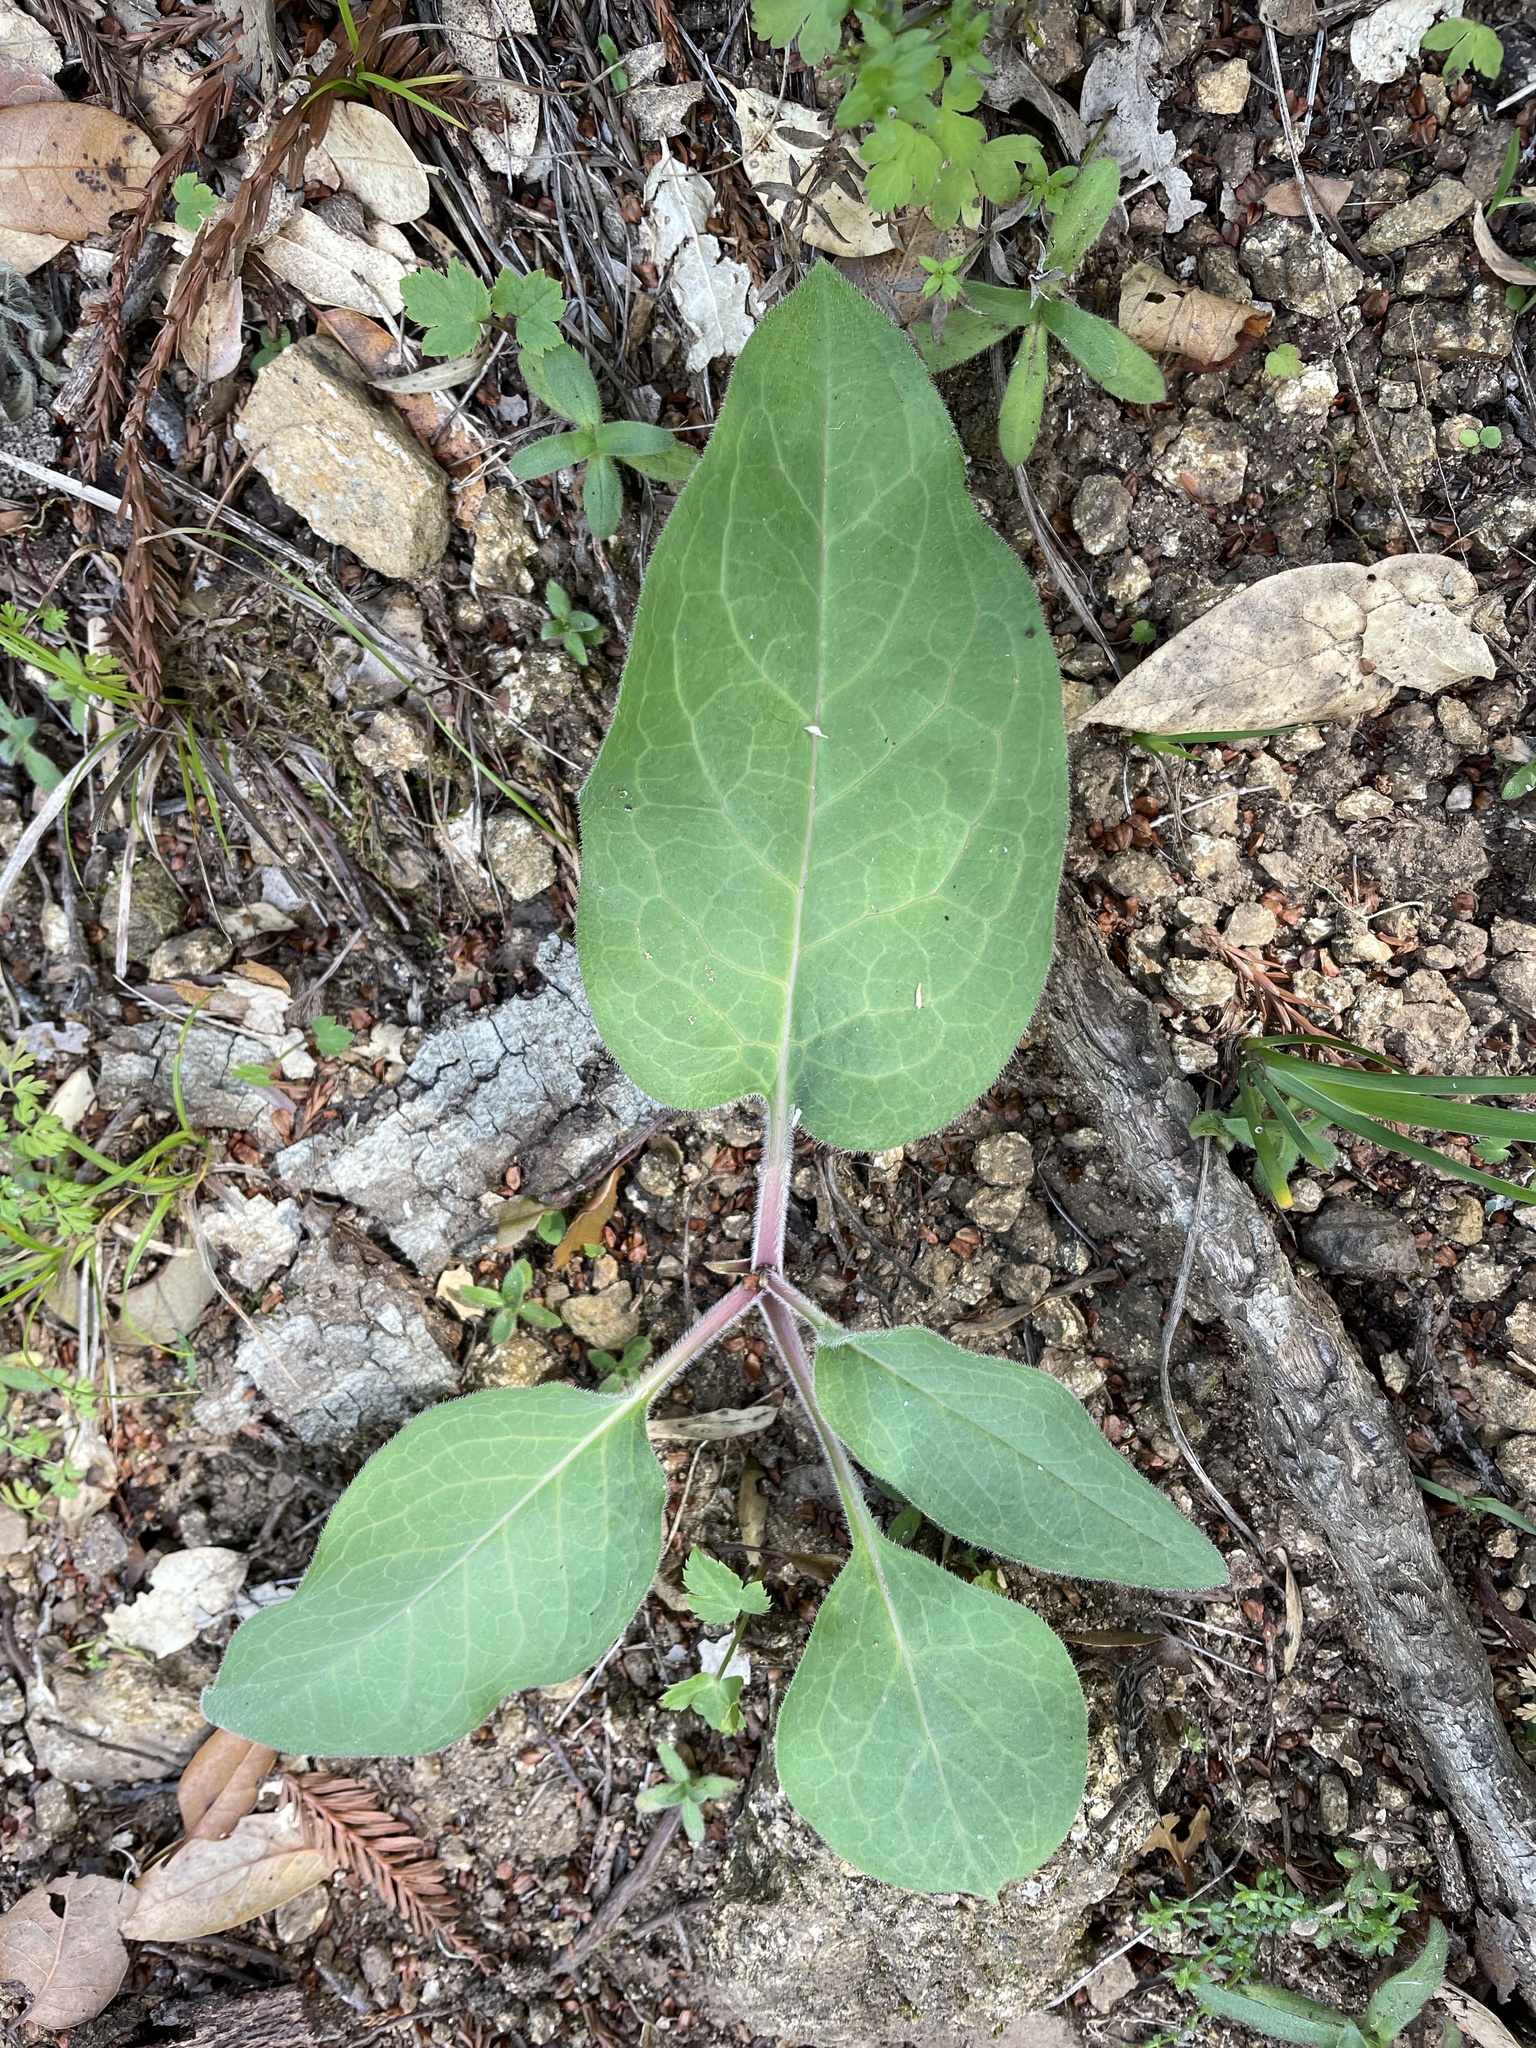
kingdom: Plantae
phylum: Tracheophyta
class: Magnoliopsida
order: Boraginales
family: Boraginaceae
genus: Adelinia
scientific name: Adelinia grande
